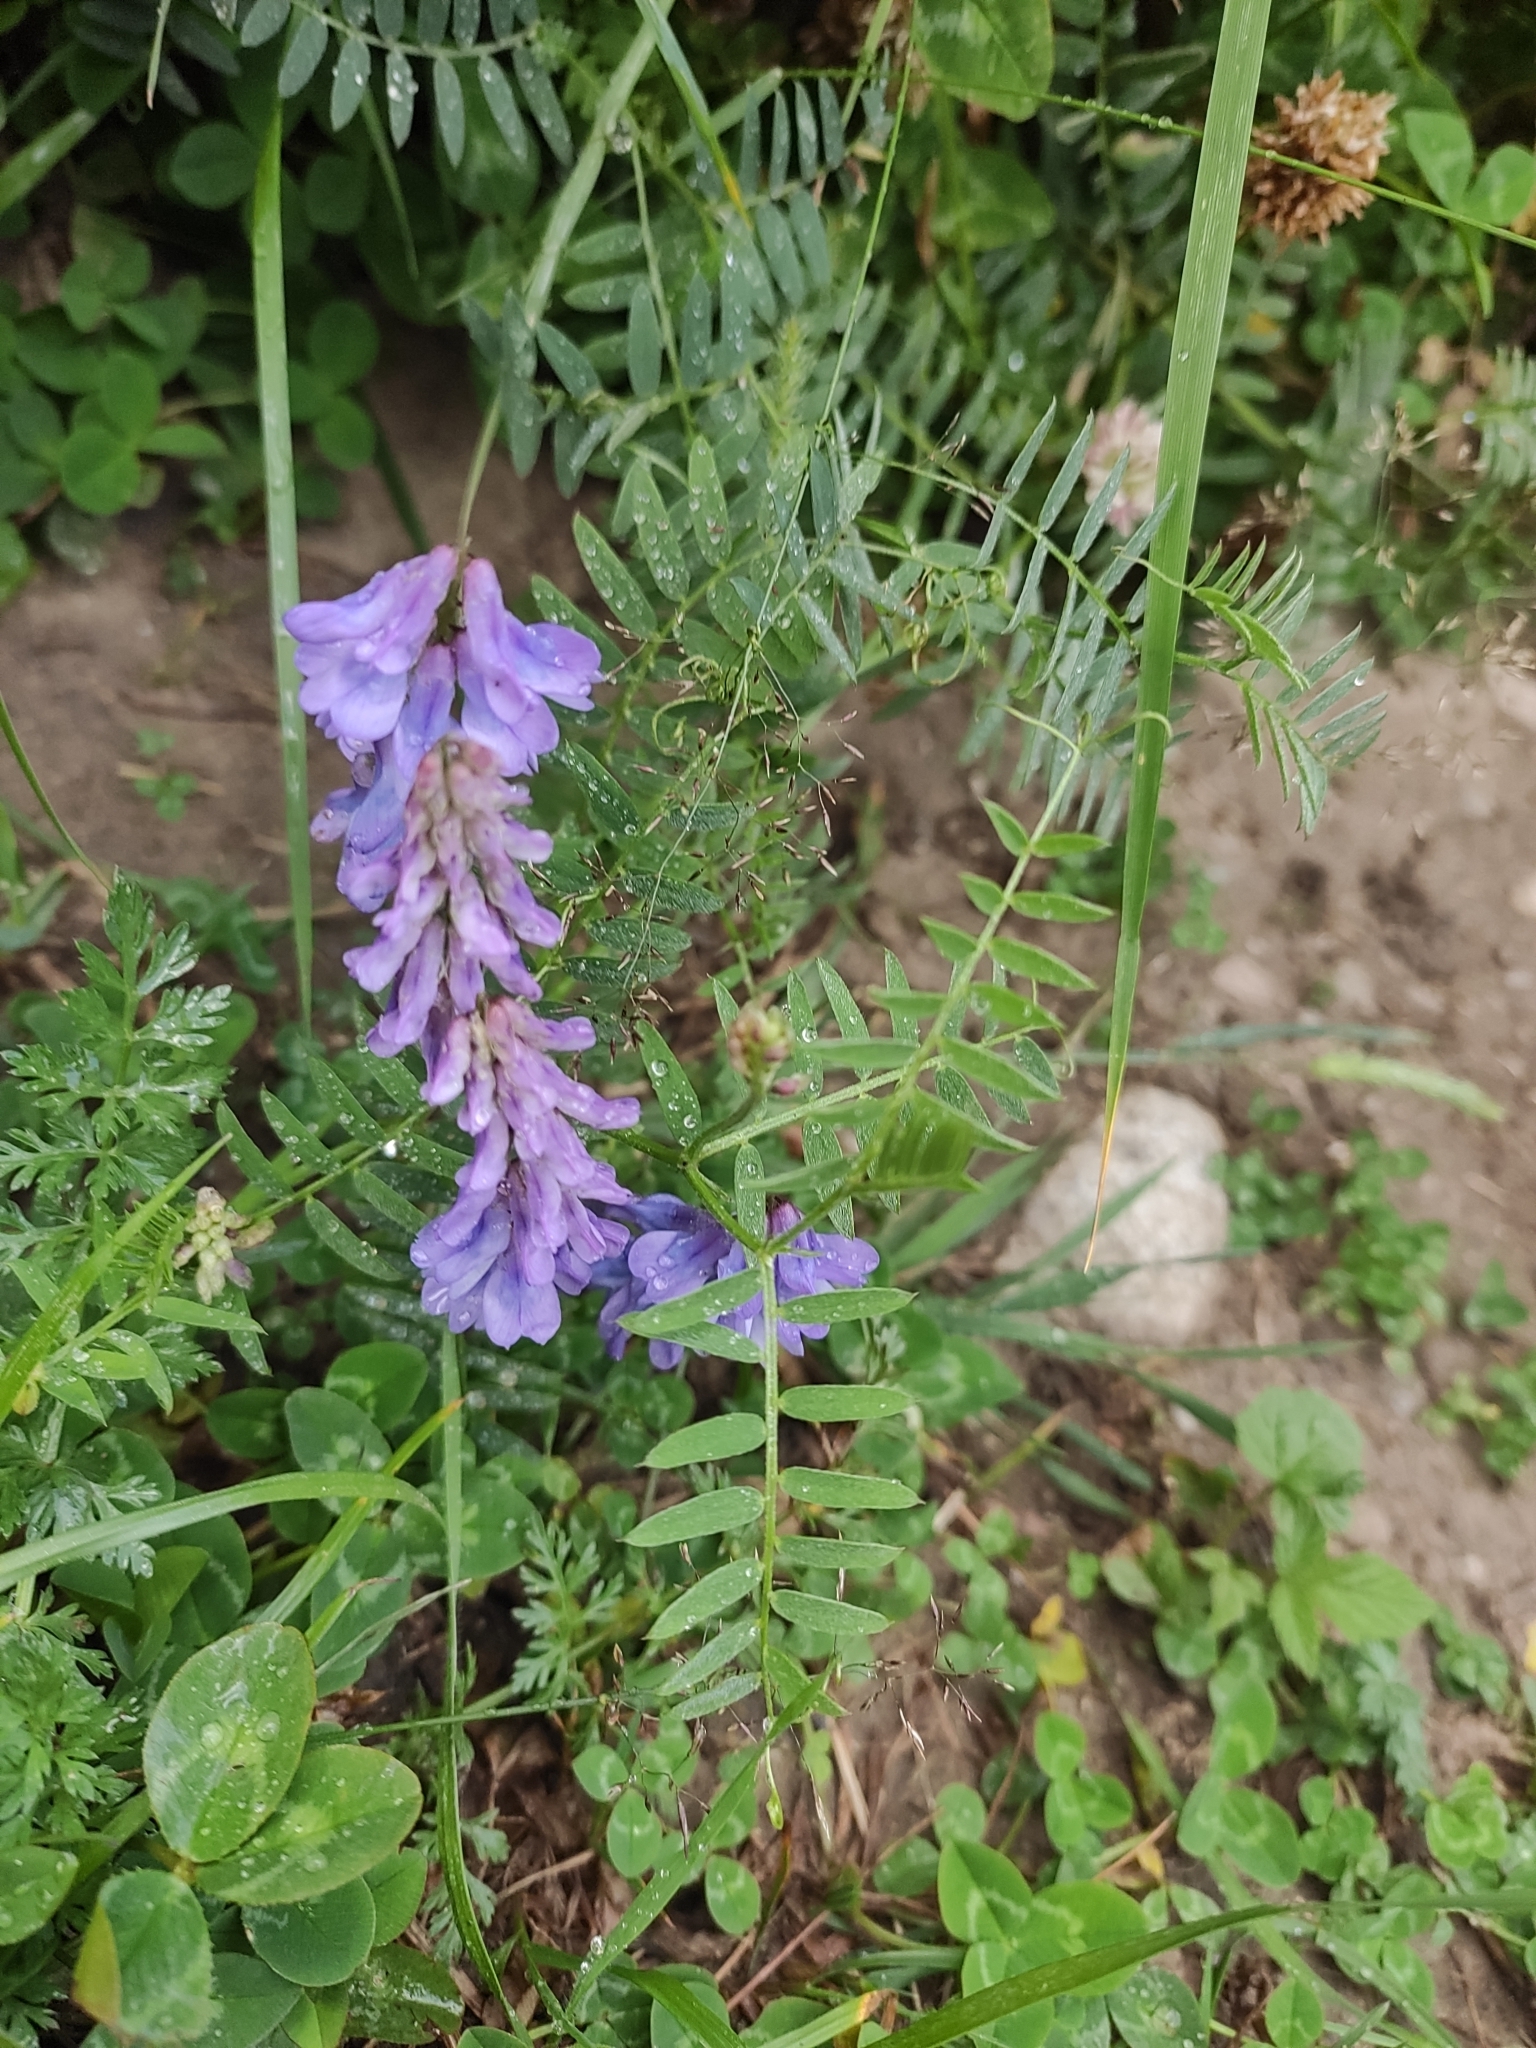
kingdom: Plantae
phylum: Tracheophyta
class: Magnoliopsida
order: Fabales
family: Fabaceae
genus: Vicia
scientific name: Vicia cracca
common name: Bird vetch
